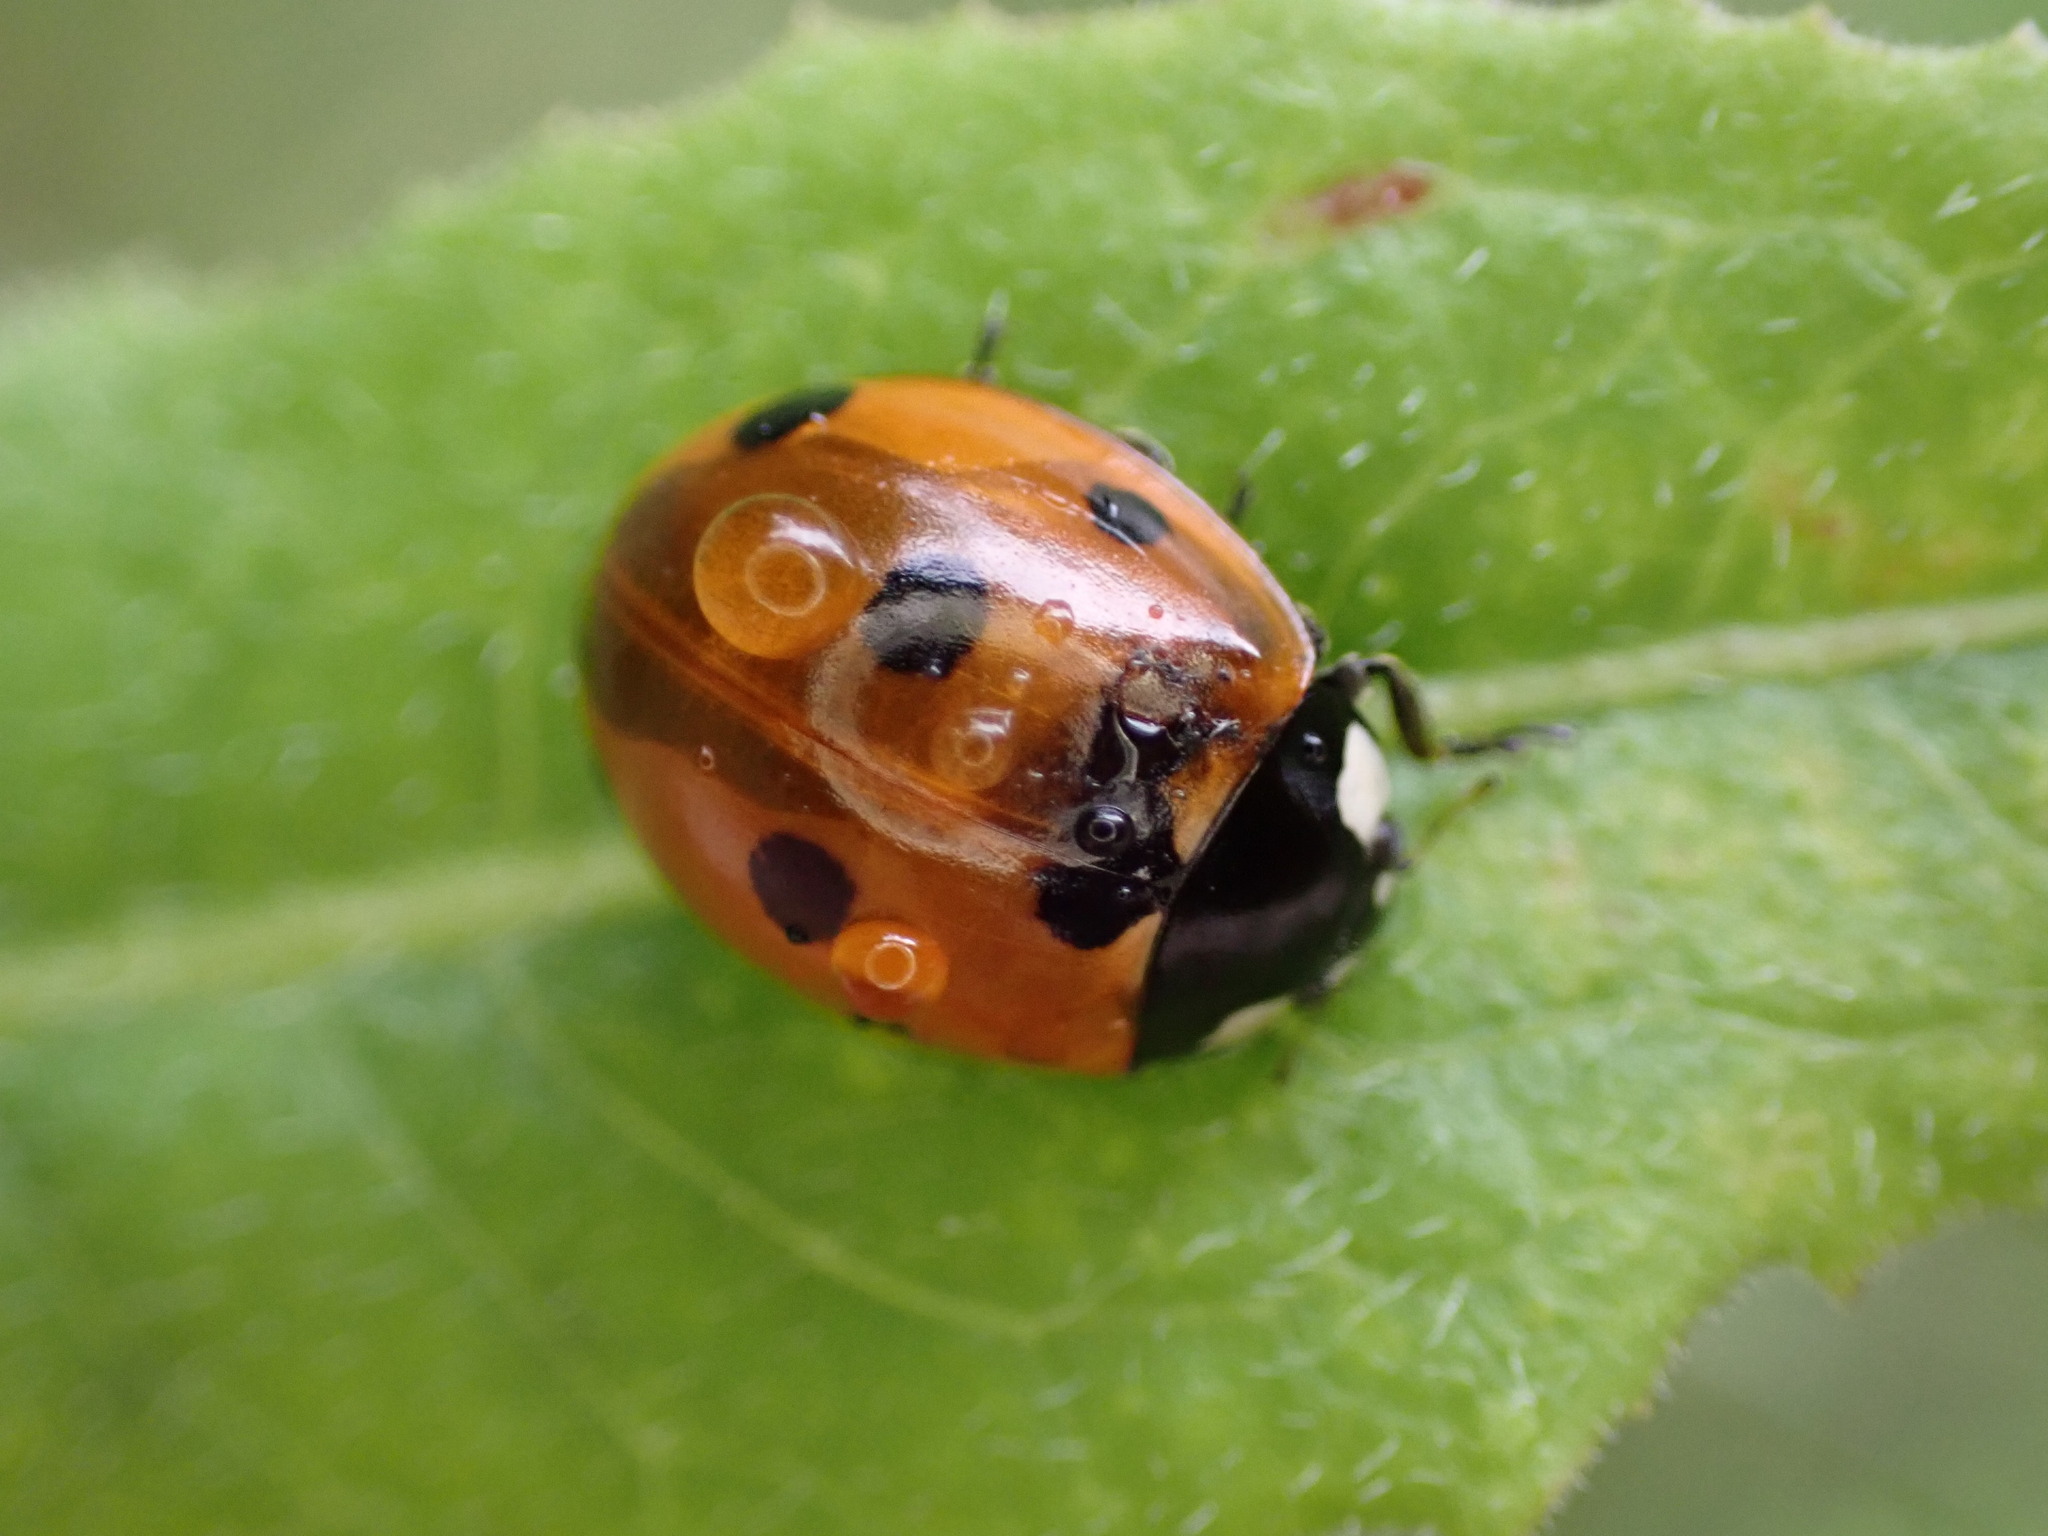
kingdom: Animalia
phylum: Arthropoda
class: Insecta
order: Coleoptera
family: Coccinellidae
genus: Coccinella
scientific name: Coccinella septempunctata
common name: Sevenspotted lady beetle
